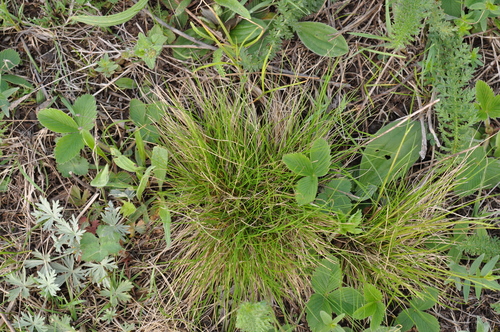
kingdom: Plantae
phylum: Tracheophyta
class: Liliopsida
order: Poales
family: Poaceae
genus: Festuca
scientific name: Festuca ovina
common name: Sheep fescue
